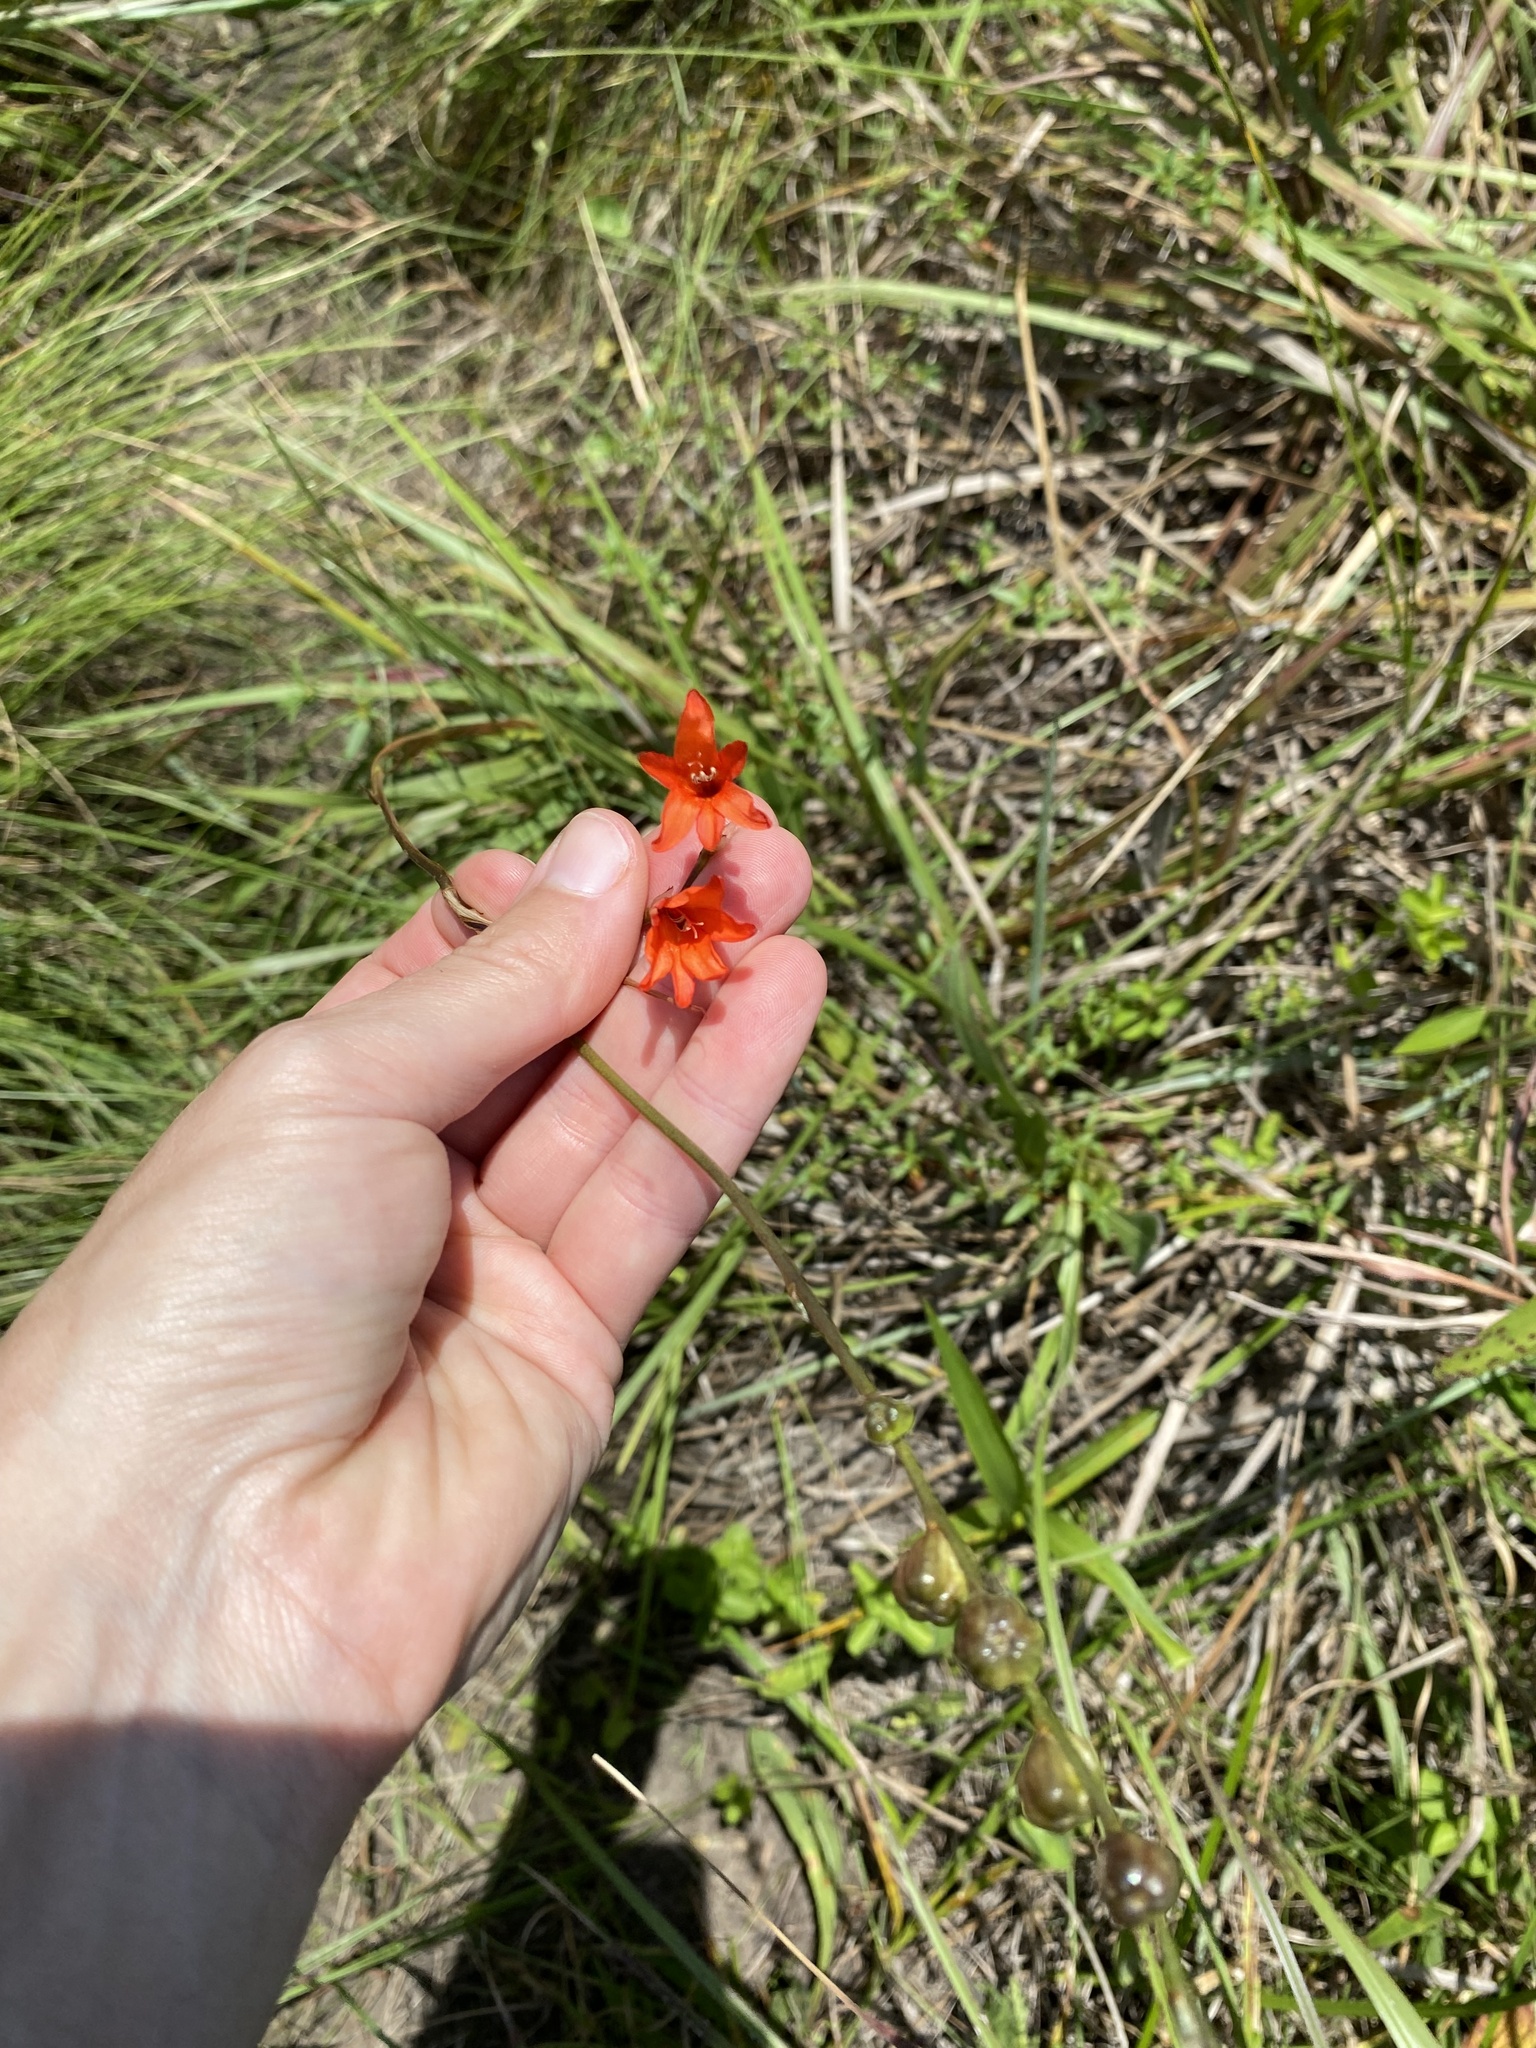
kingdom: Plantae
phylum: Tracheophyta
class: Liliopsida
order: Asparagales
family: Iridaceae
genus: Tritonia
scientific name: Tritonia disticha
